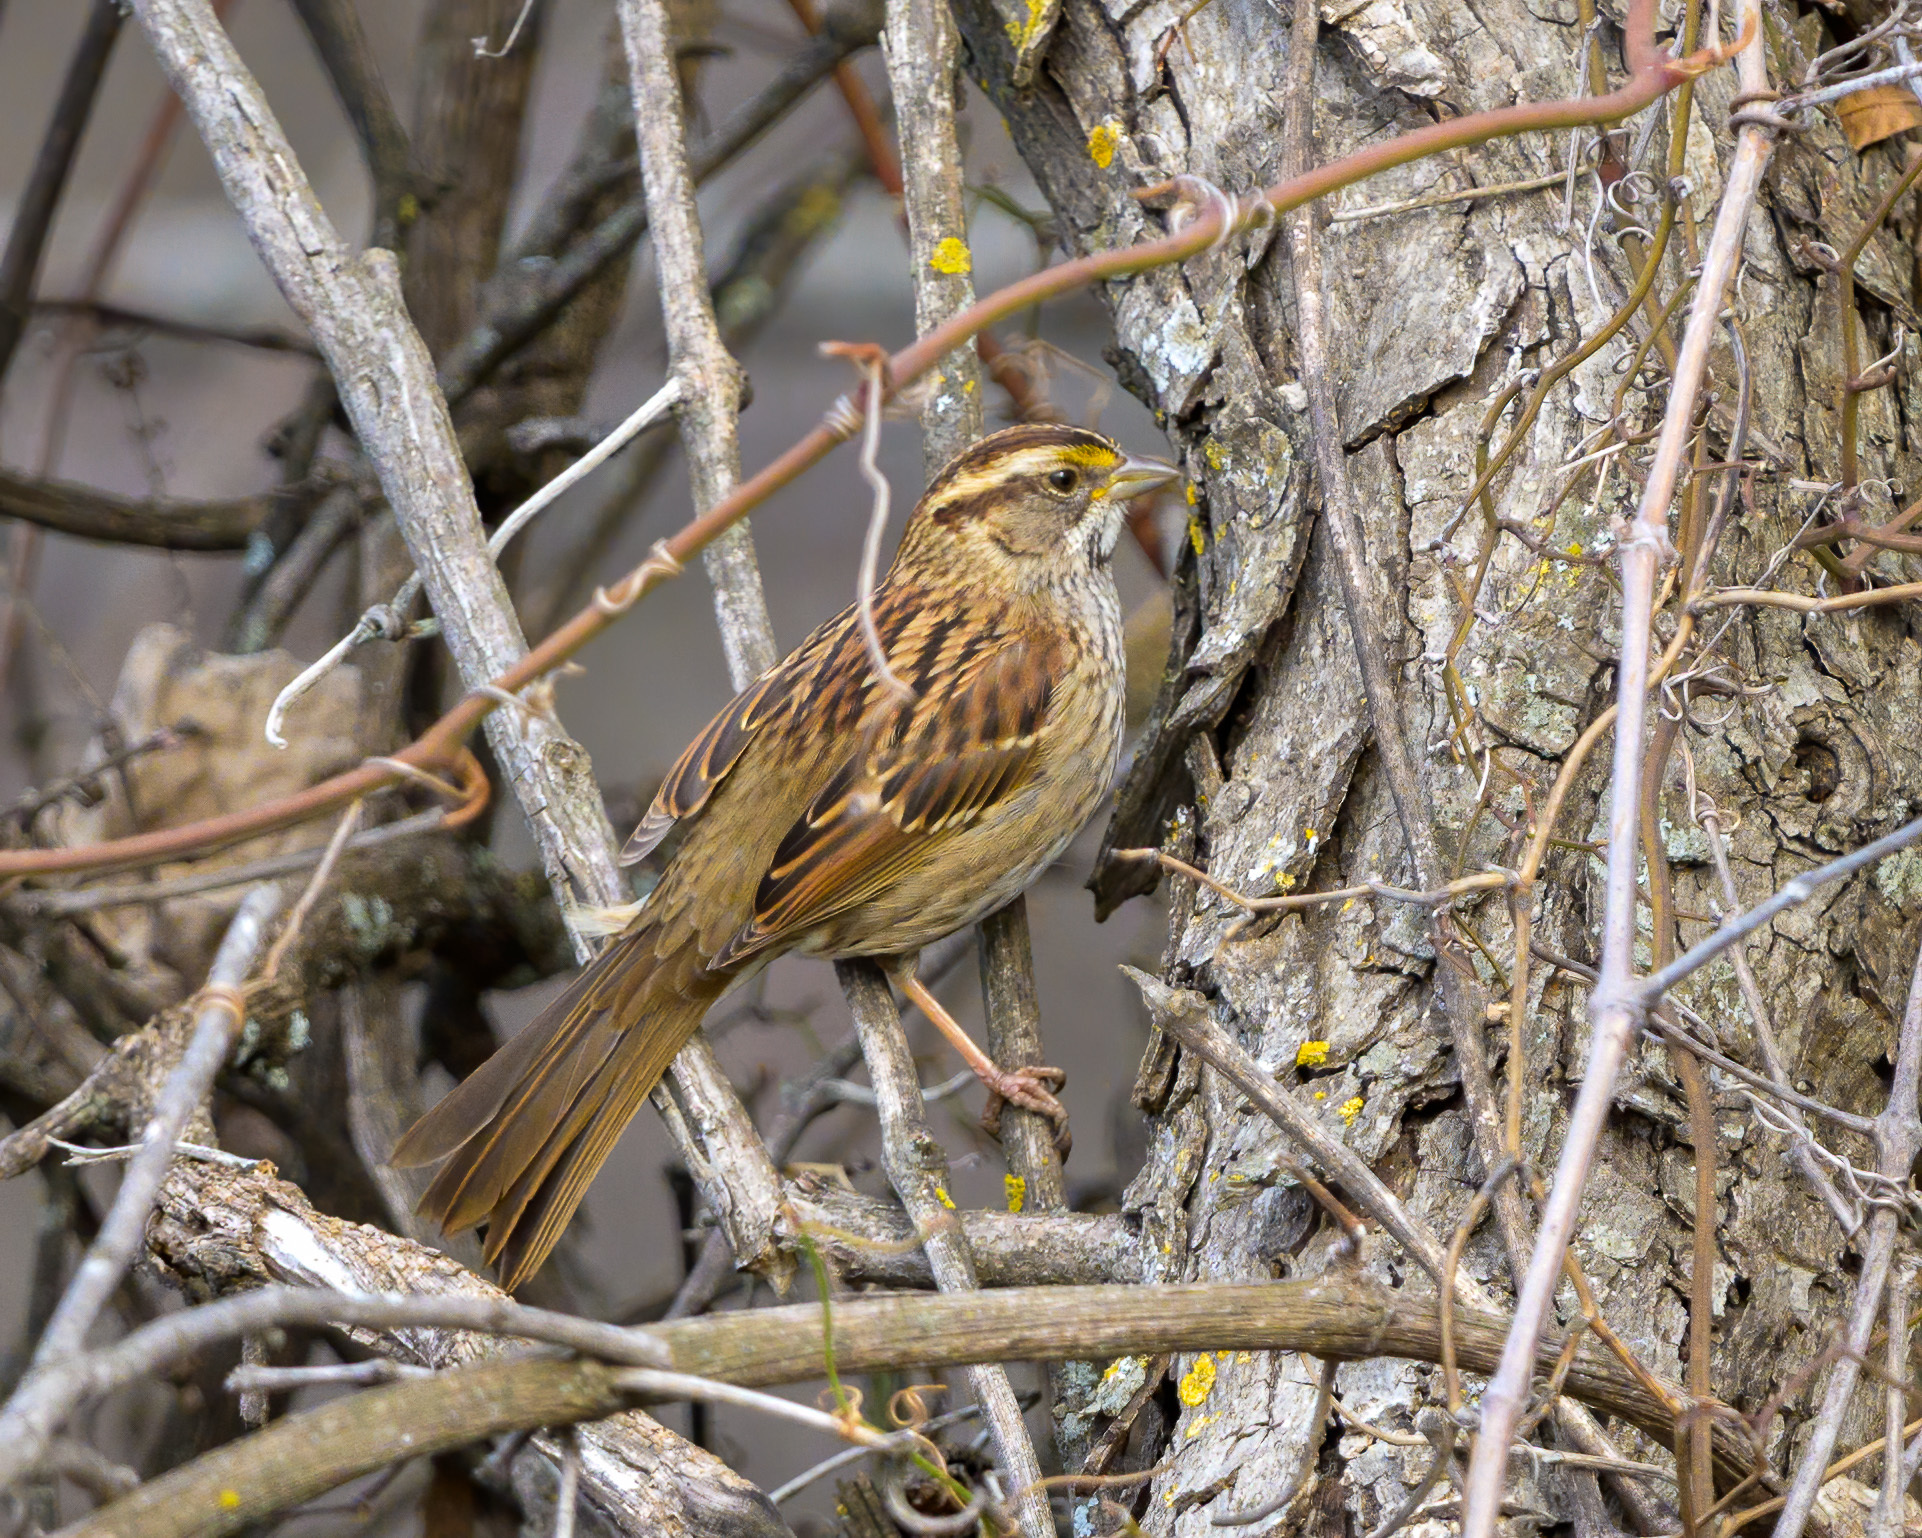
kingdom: Animalia
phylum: Chordata
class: Aves
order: Passeriformes
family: Passerellidae
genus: Zonotrichia
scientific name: Zonotrichia albicollis
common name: White-throated sparrow
